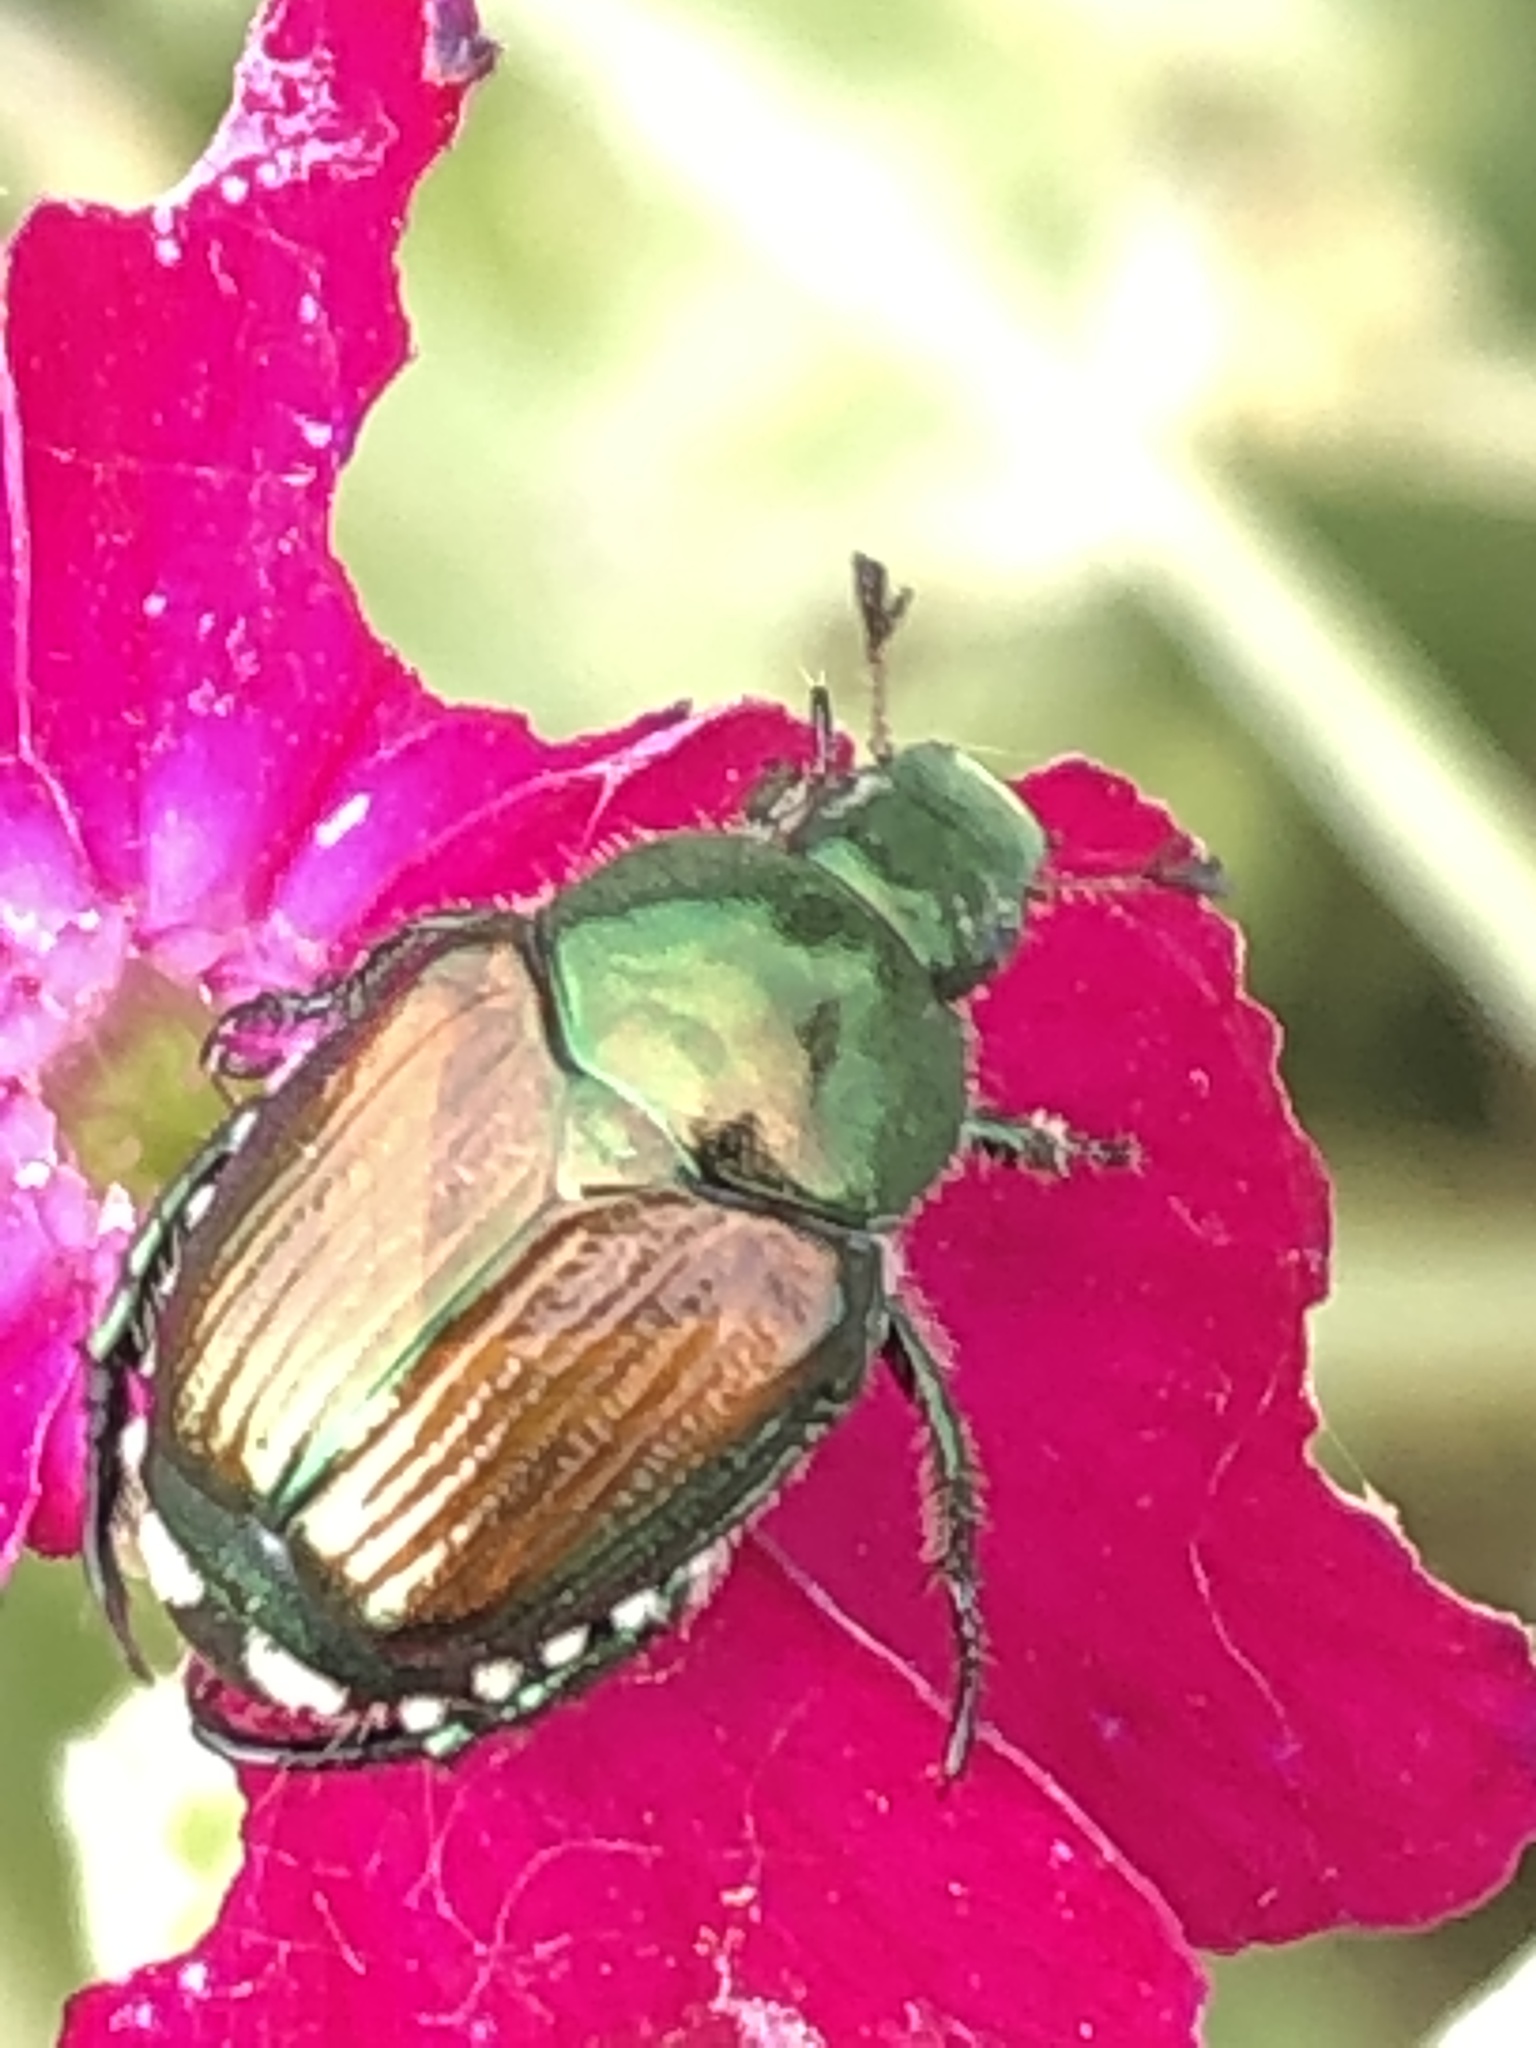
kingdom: Animalia
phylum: Arthropoda
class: Insecta
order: Coleoptera
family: Scarabaeidae
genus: Popillia
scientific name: Popillia japonica
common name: Japanese beetle
